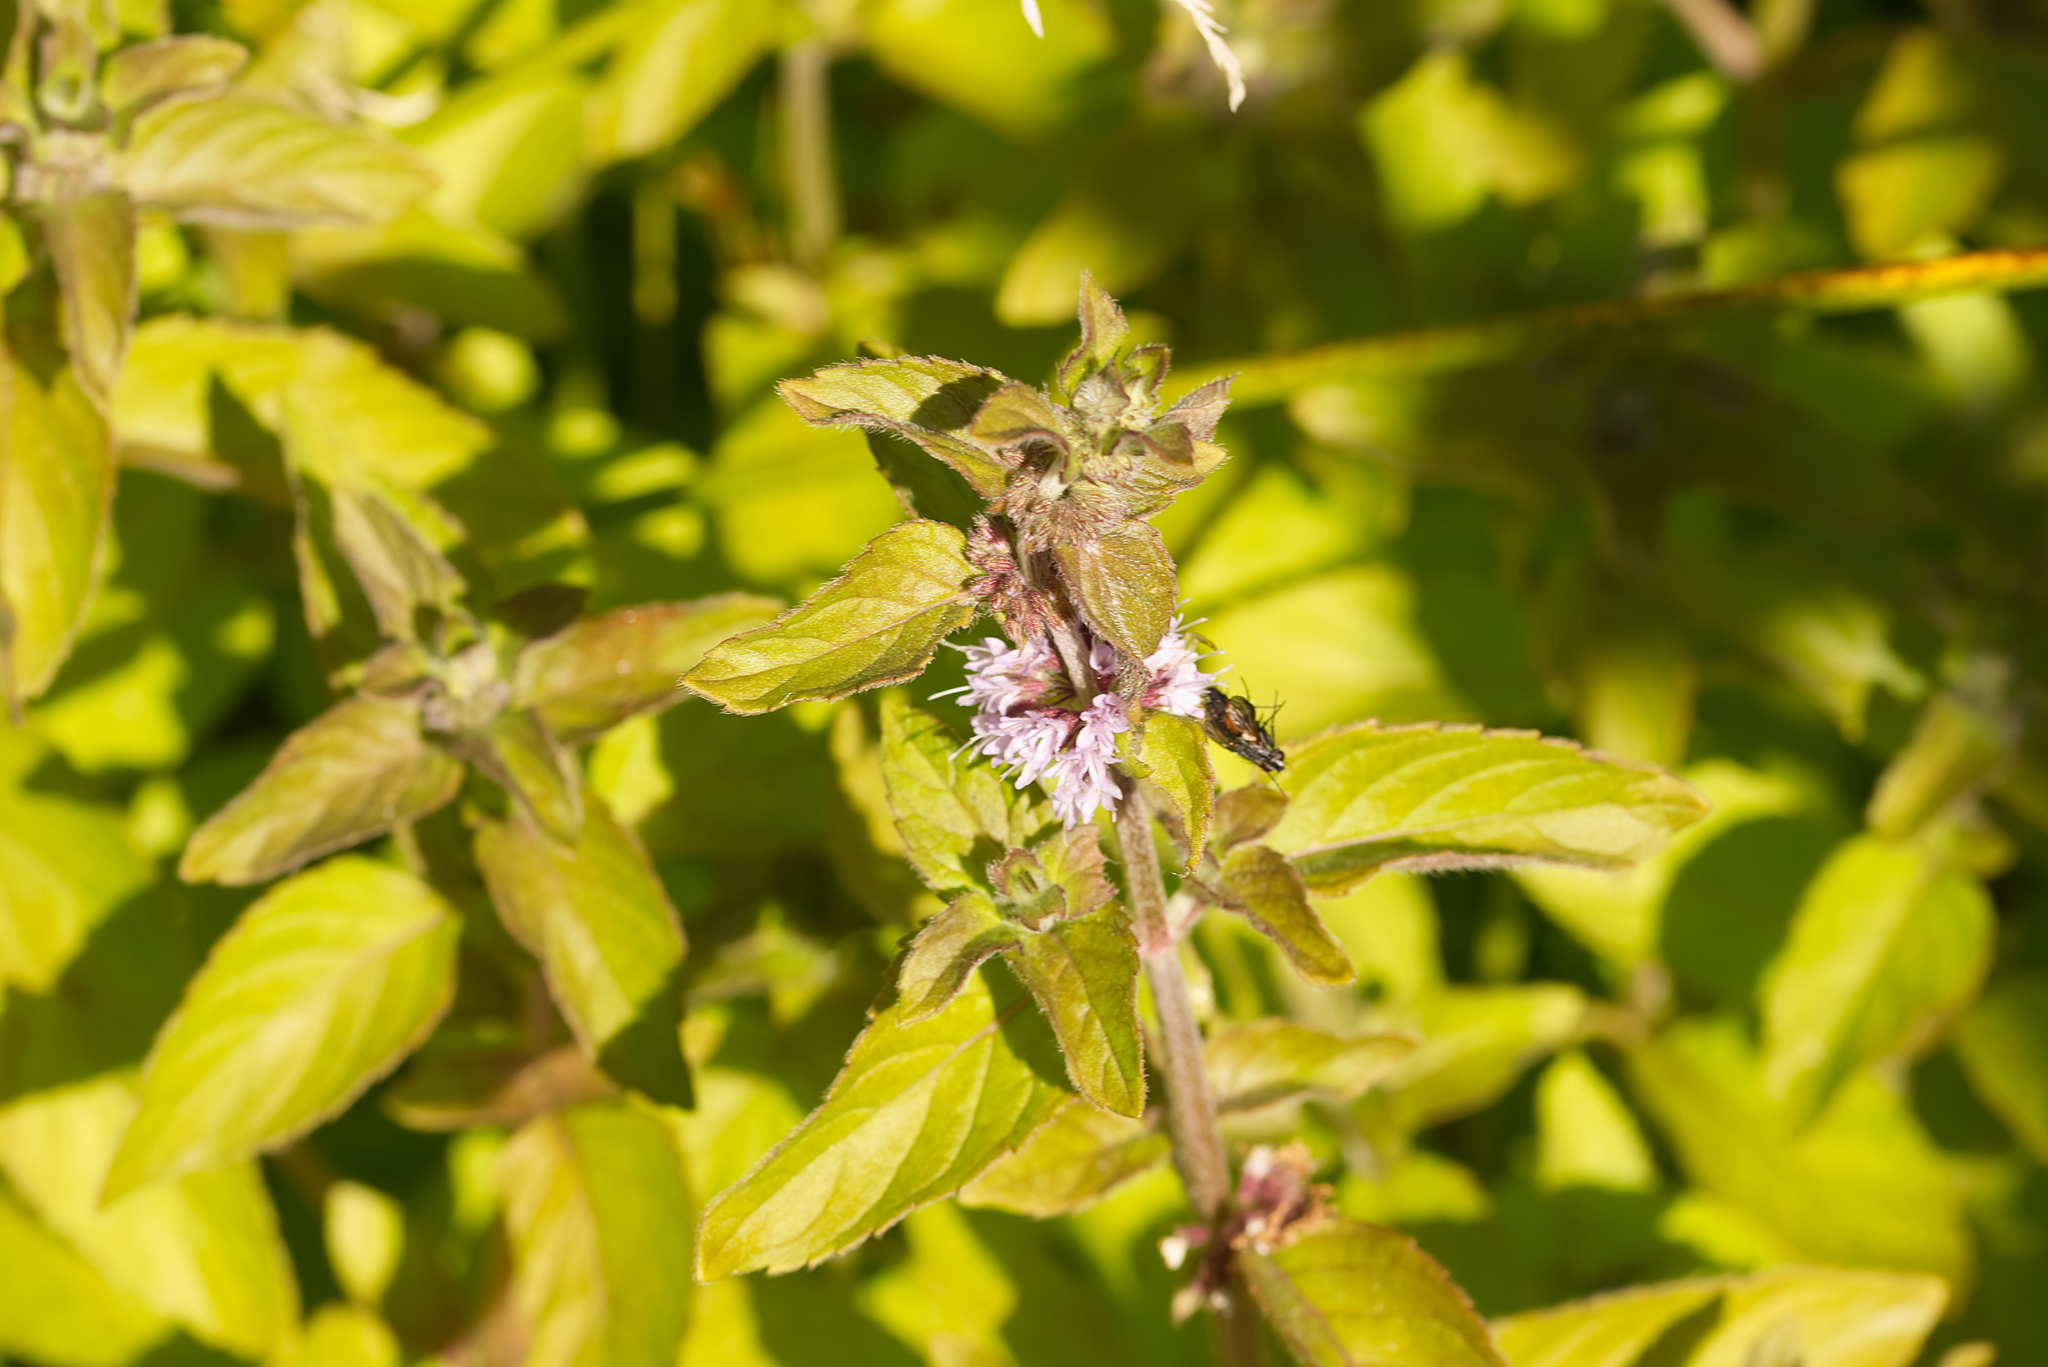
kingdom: Plantae
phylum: Tracheophyta
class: Magnoliopsida
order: Lamiales
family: Lamiaceae
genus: Mentha
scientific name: Mentha arvensis
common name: Corn mint
